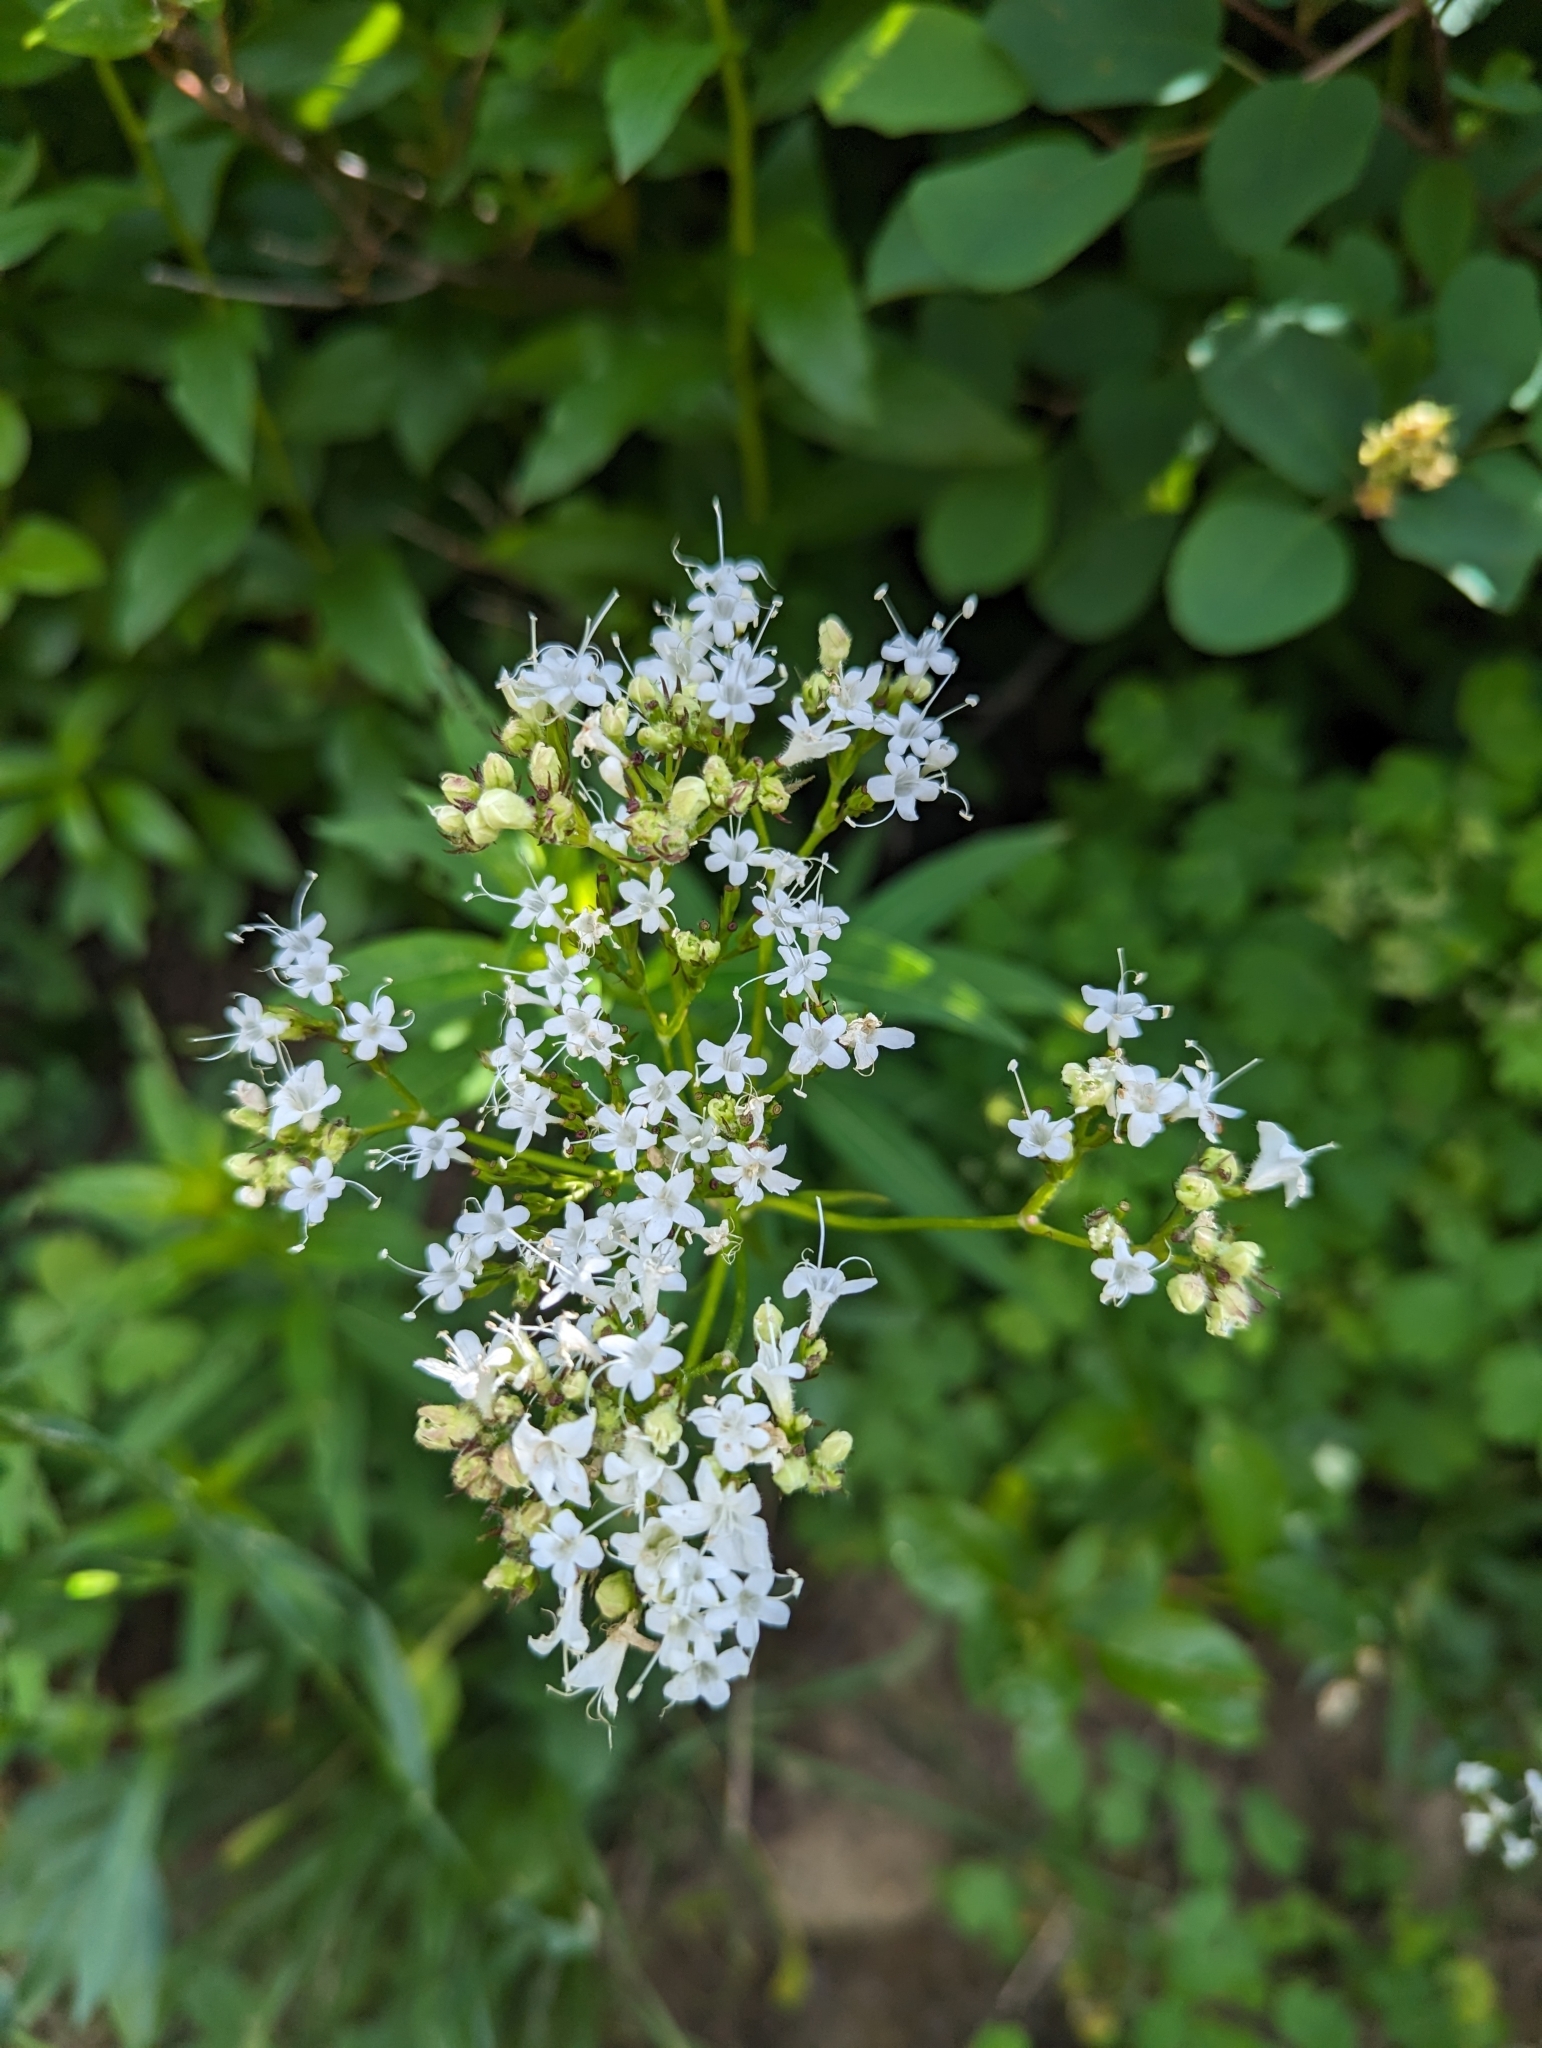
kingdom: Plantae
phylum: Tracheophyta
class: Magnoliopsida
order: Dipsacales
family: Caprifoliaceae
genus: Valeriana
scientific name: Valeriana sitchensis
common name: Pacific valerian
